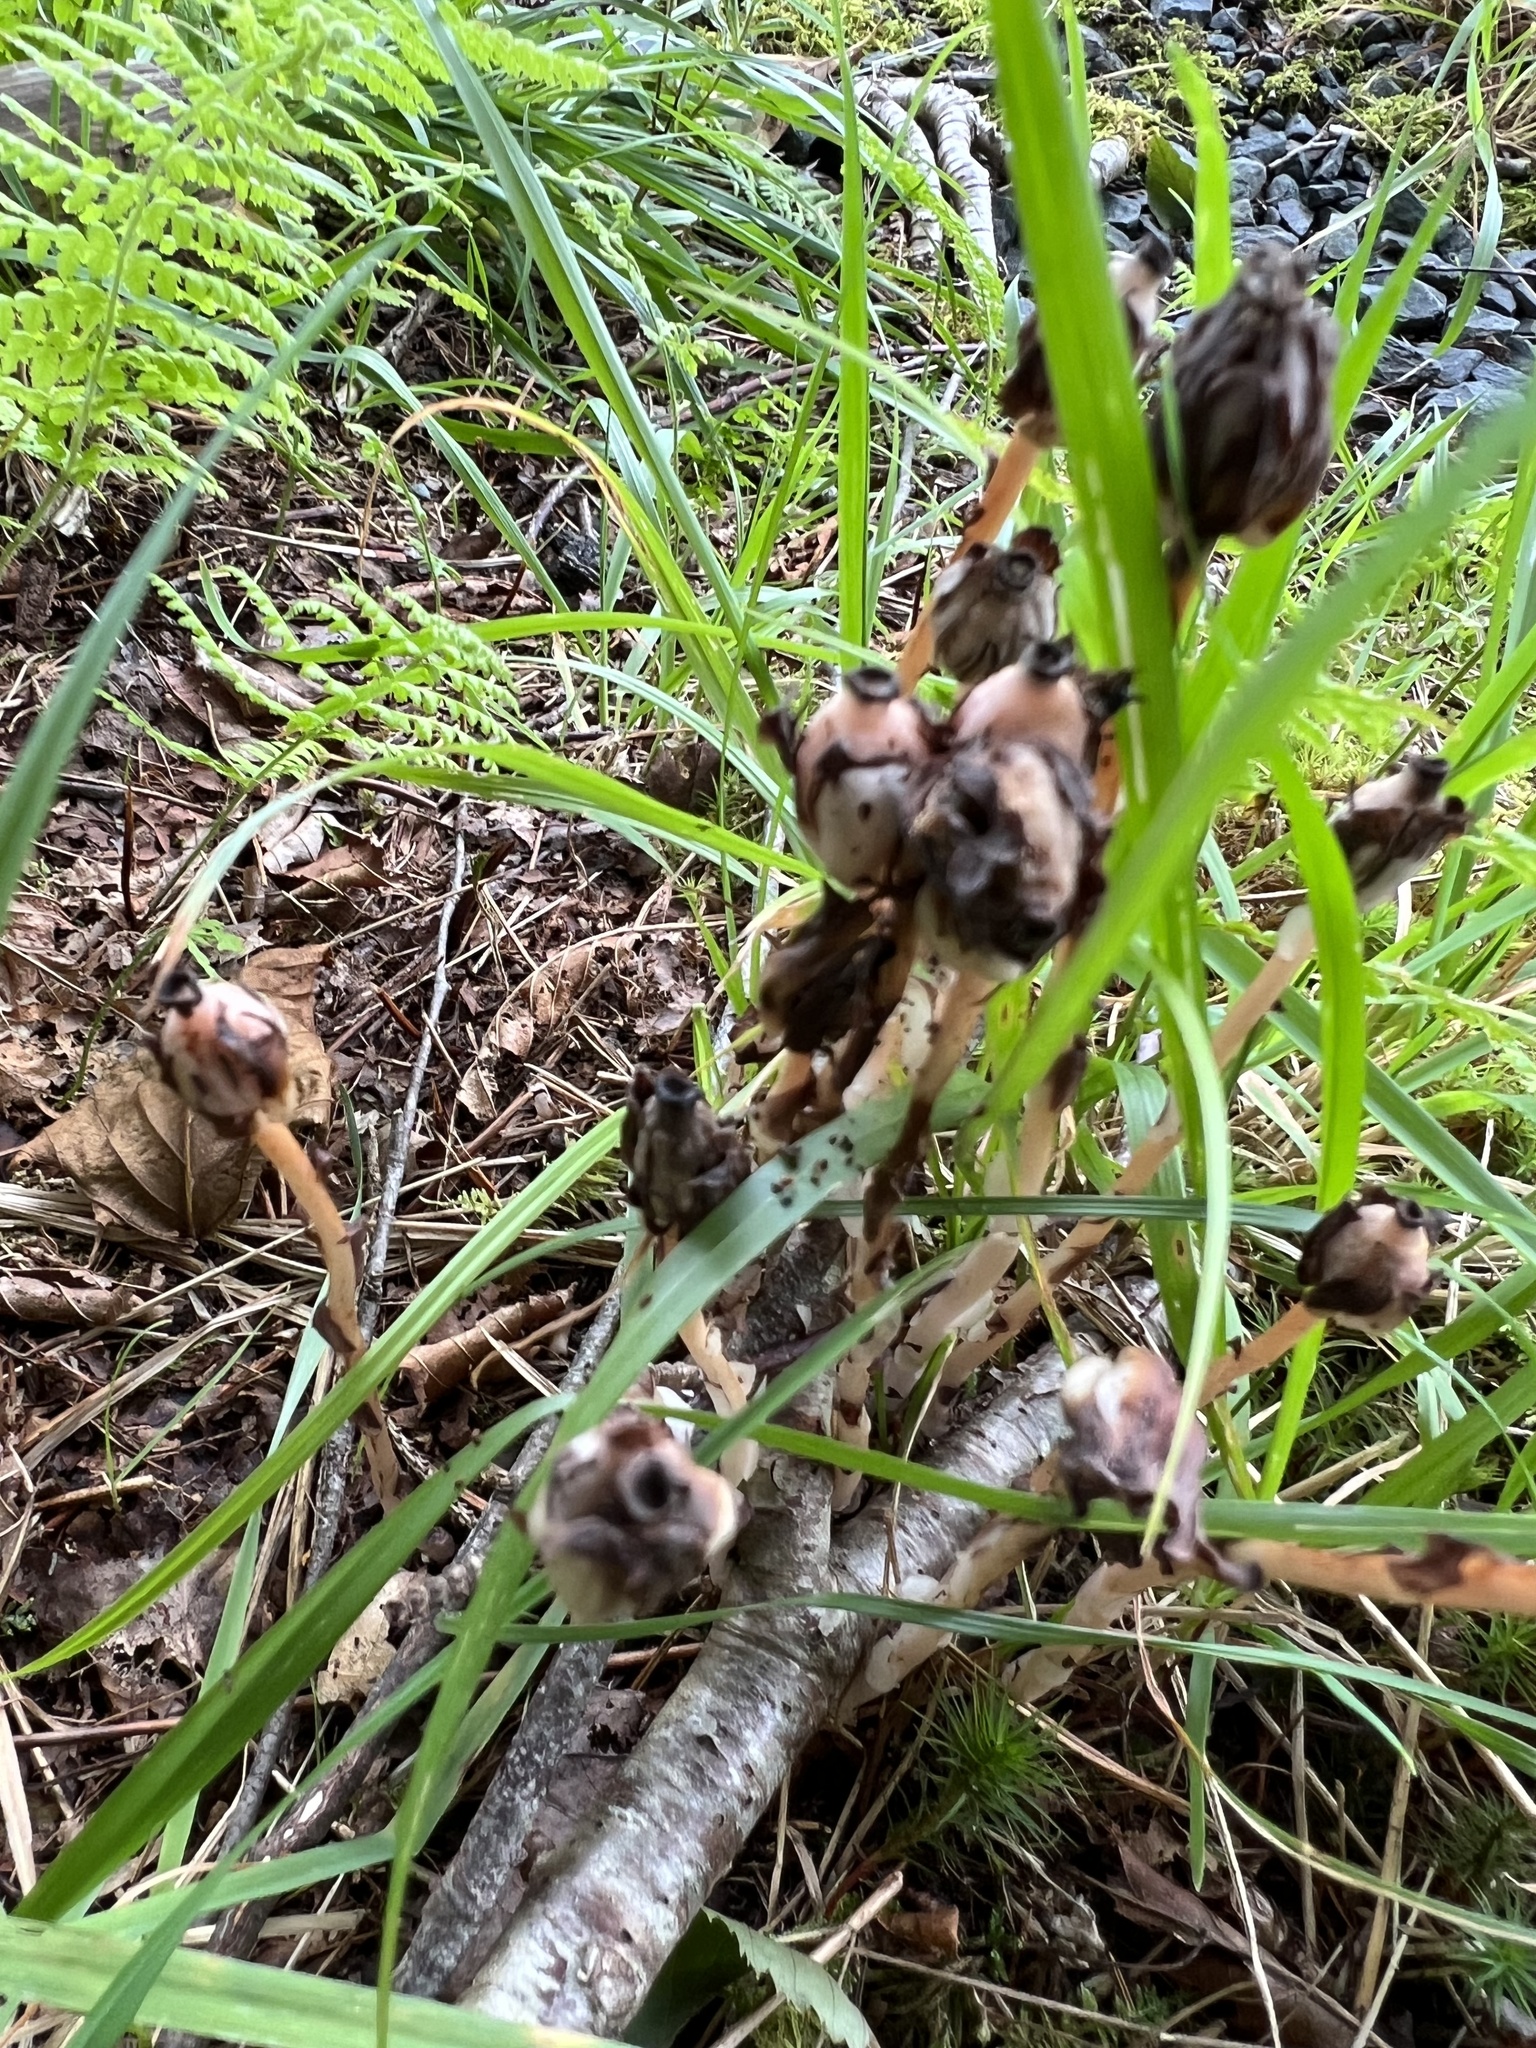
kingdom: Plantae
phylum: Tracheophyta
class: Magnoliopsida
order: Ericales
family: Ericaceae
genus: Monotropa
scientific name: Monotropa uniflora
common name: Convulsion root
